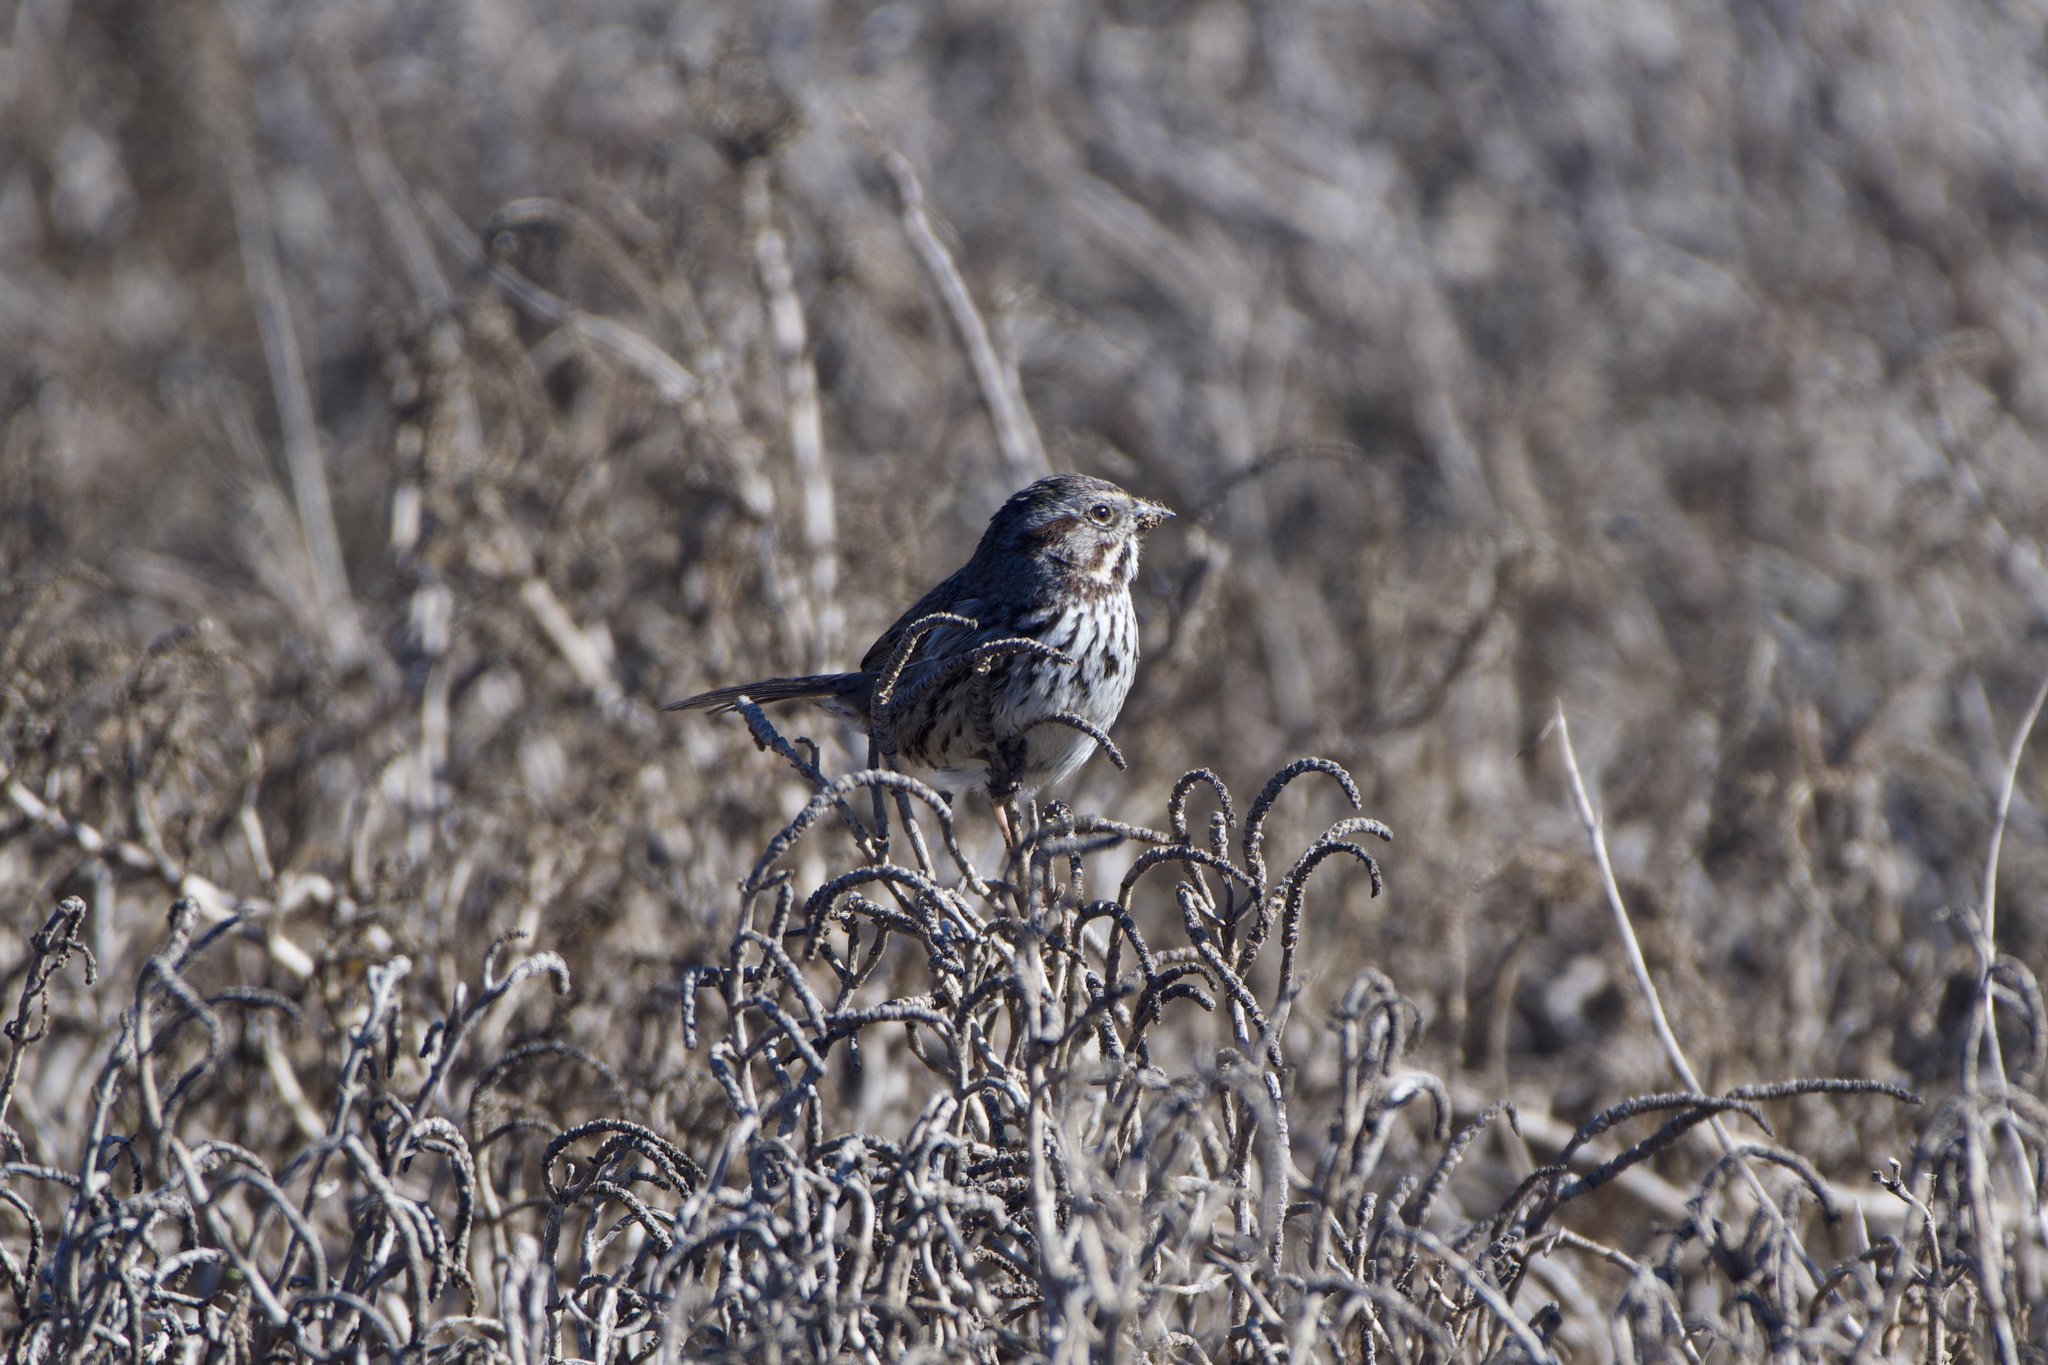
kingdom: Animalia
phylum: Chordata
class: Aves
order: Passeriformes
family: Passerellidae
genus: Melospiza
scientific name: Melospiza melodia
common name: Song sparrow
